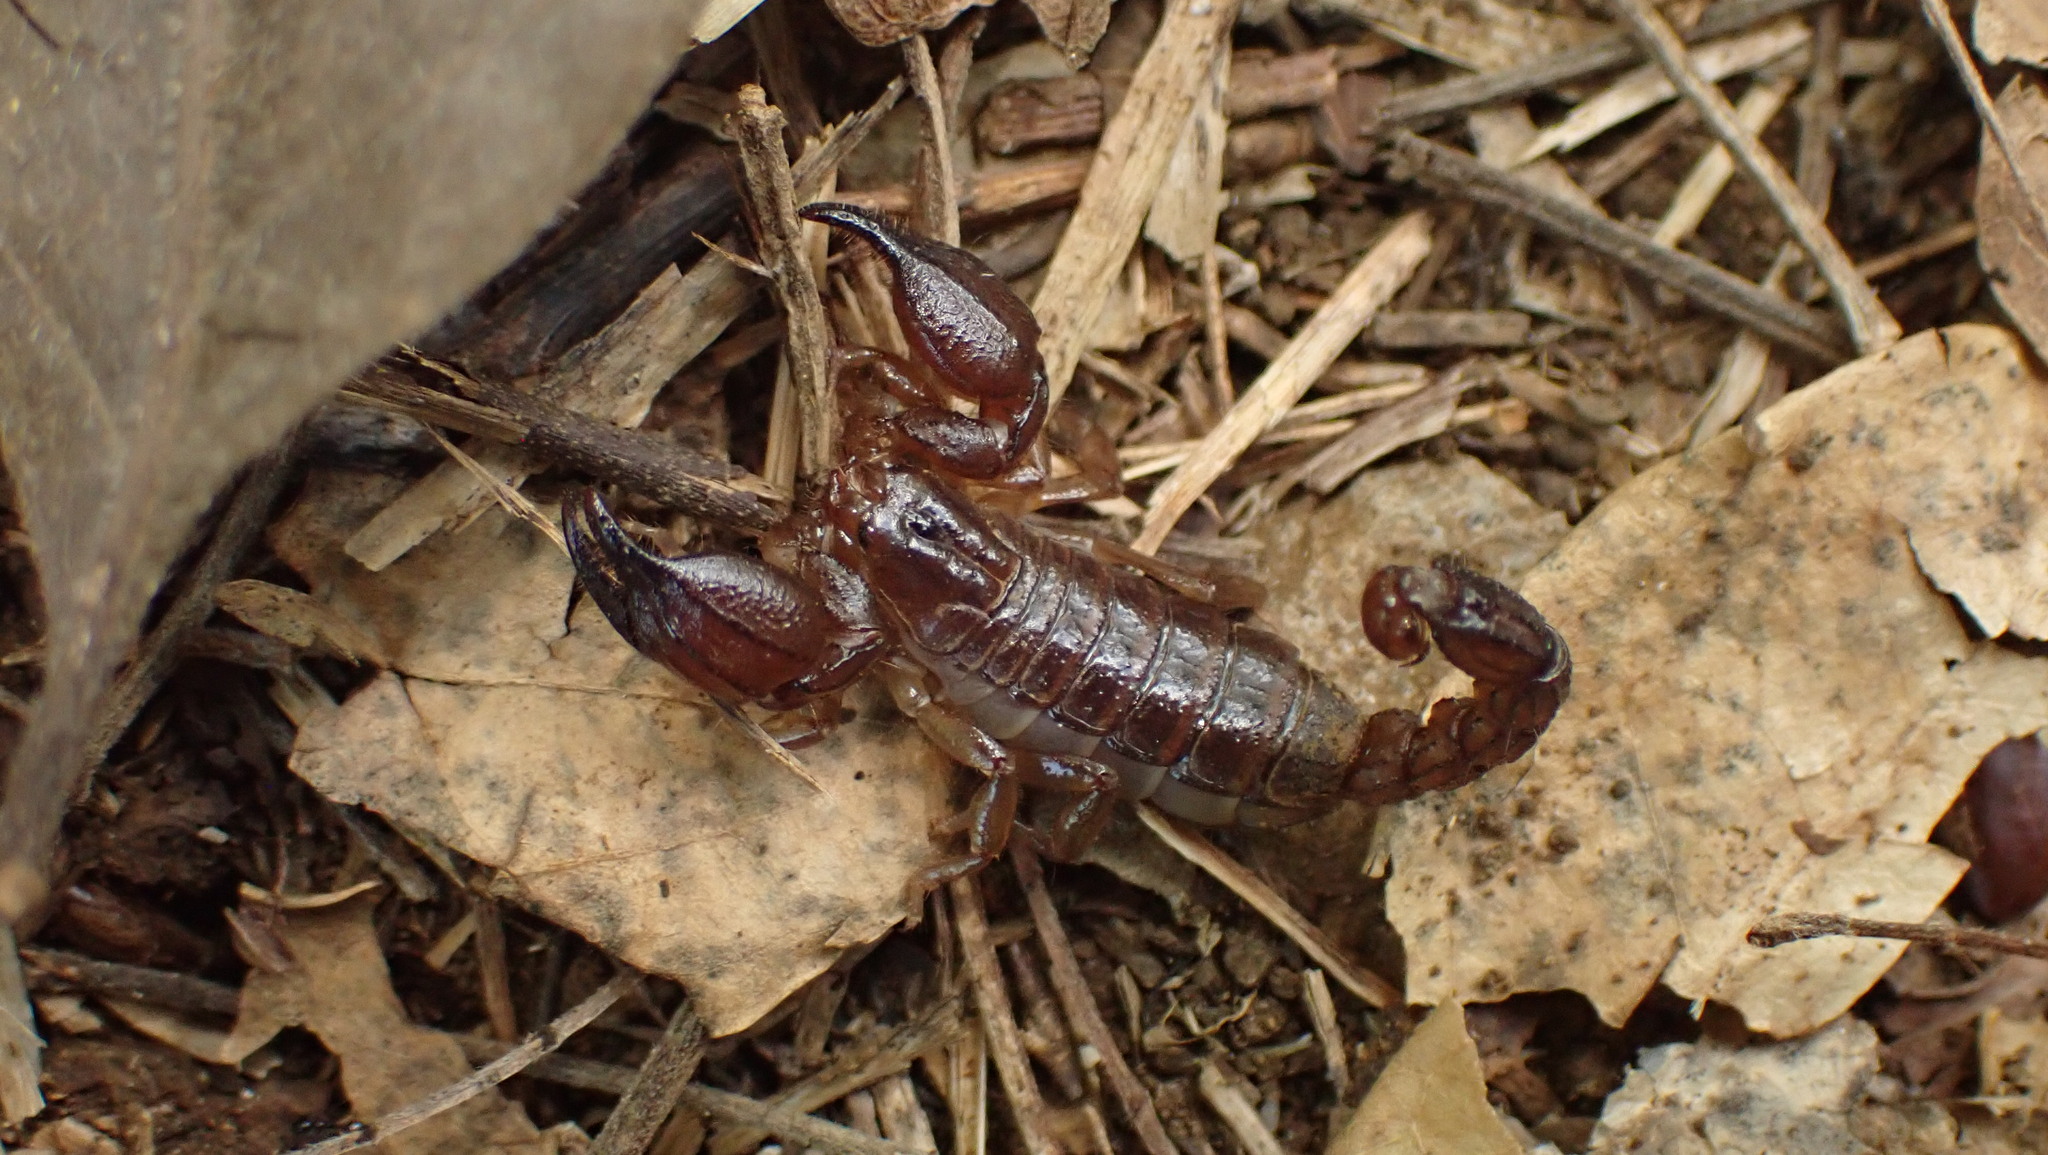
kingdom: Animalia
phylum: Arthropoda
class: Arachnida
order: Scorpiones
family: Diplocentridae
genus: Heteronebo
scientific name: Heteronebo portoricensis
